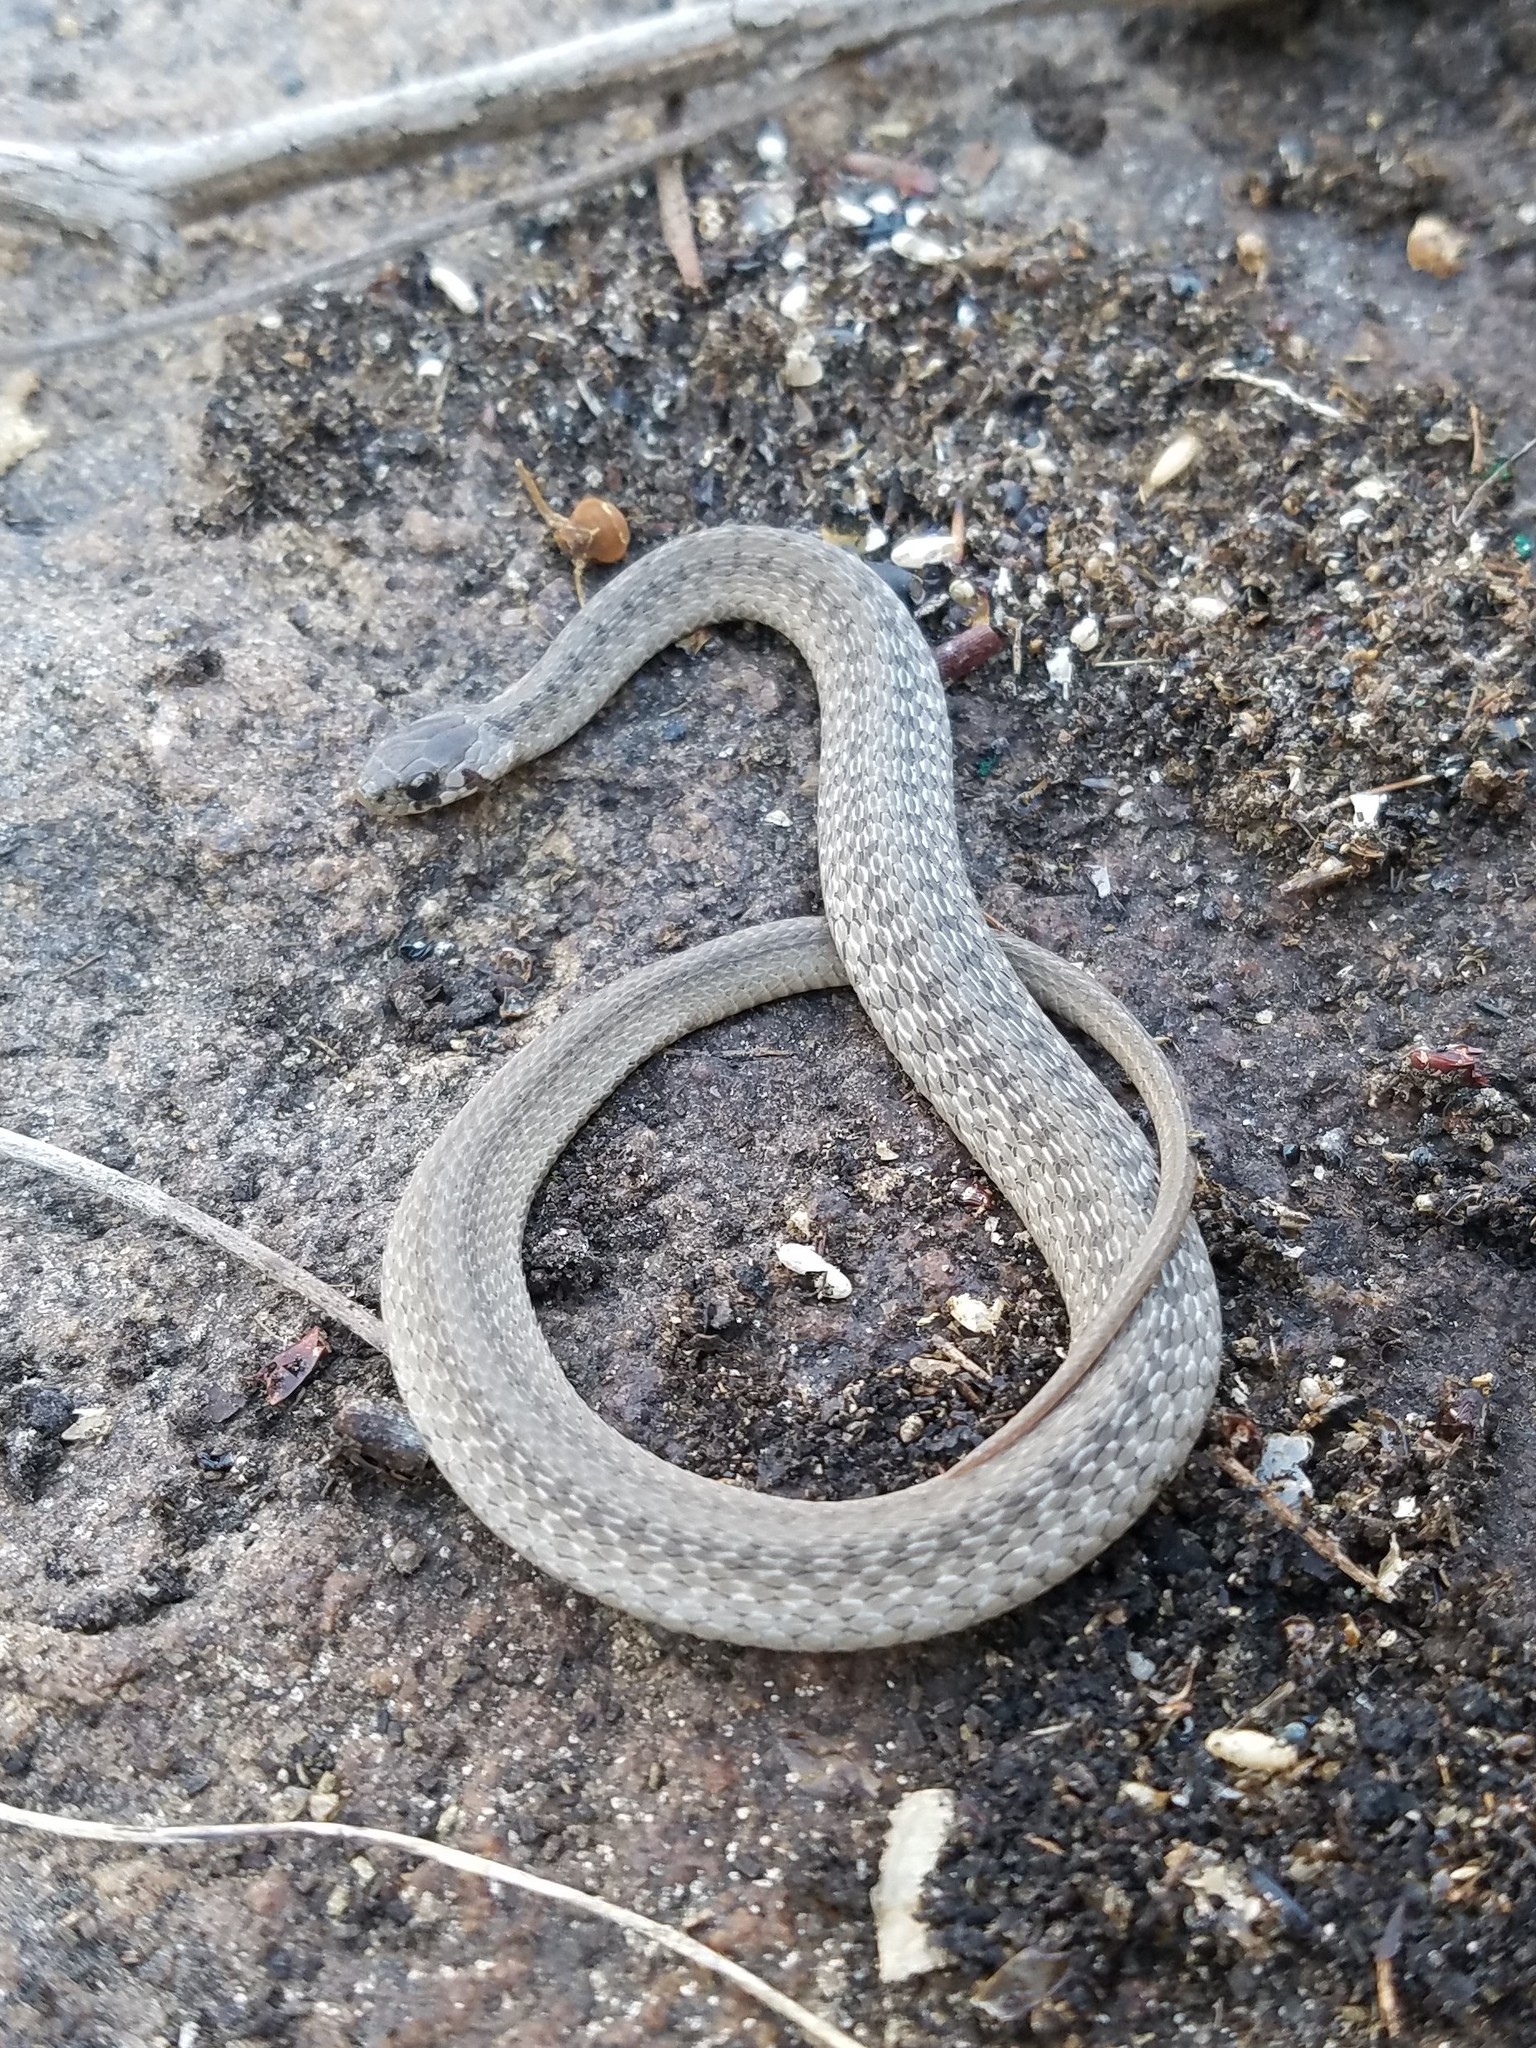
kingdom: Animalia
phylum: Chordata
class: Squamata
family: Colubridae
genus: Storeria
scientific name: Storeria dekayi
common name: (dekay’s) brown snake
